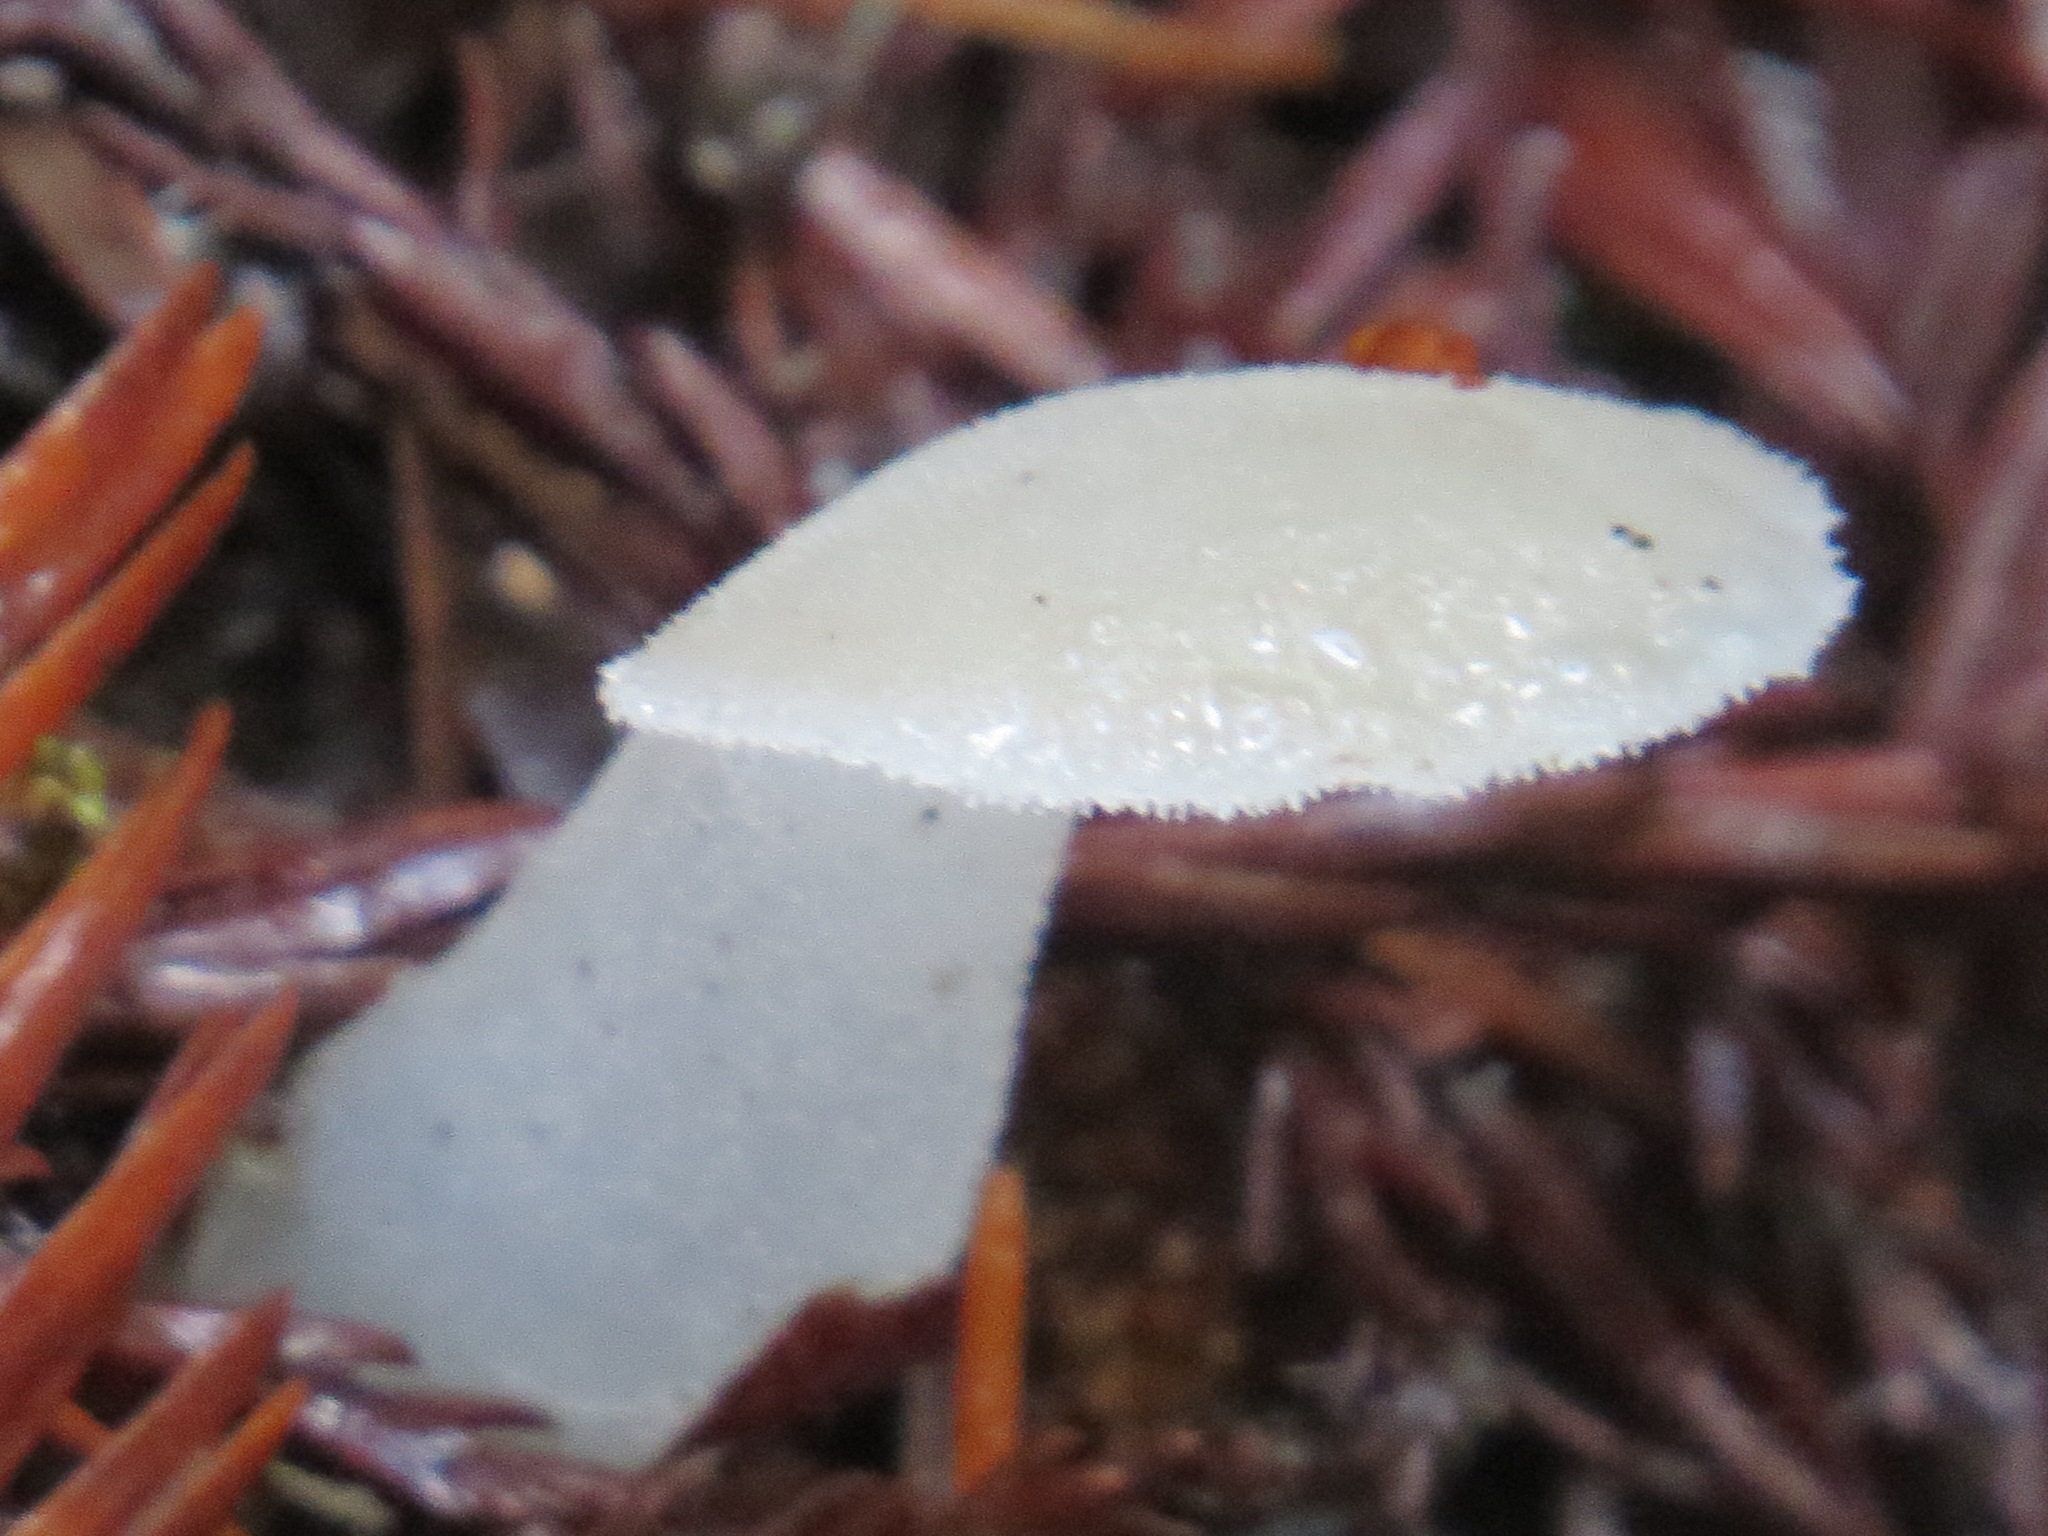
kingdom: Fungi
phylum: Basidiomycota
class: Agaricomycetes
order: Auriculariales
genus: Pseudohydnum
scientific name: Pseudohydnum gelatinosum
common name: Jelly tongue
